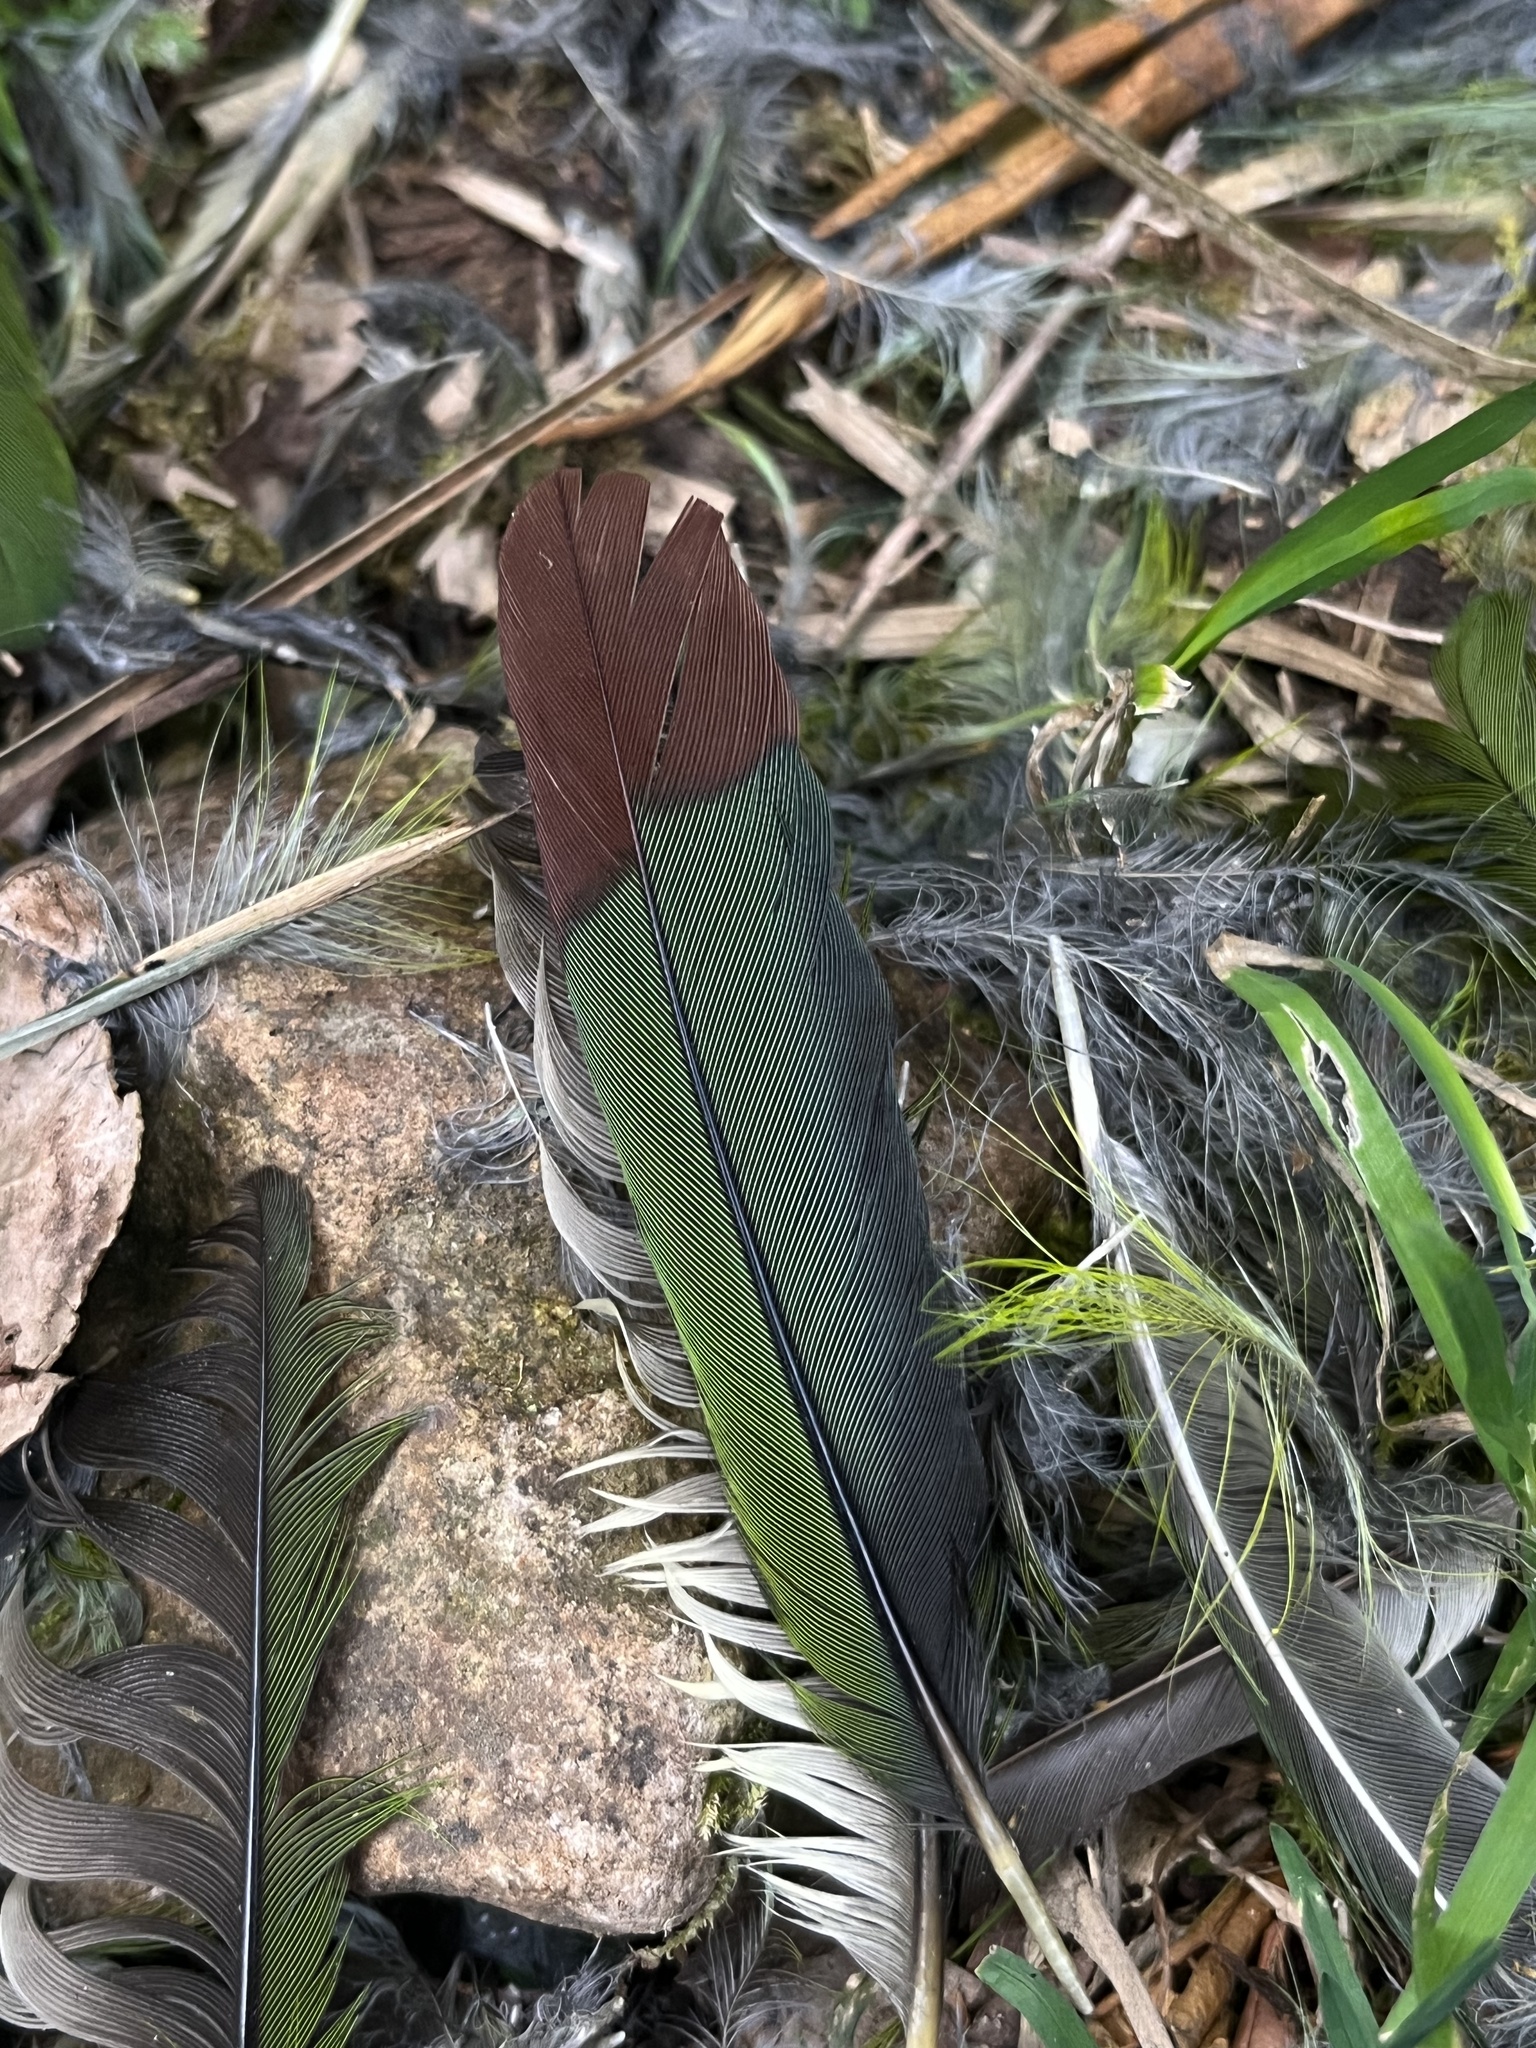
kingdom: Animalia
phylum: Chordata
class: Aves
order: Piciformes
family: Ramphastidae
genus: Aulacorhynchus
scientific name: Aulacorhynchus albivitta
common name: White-throated toucanet
